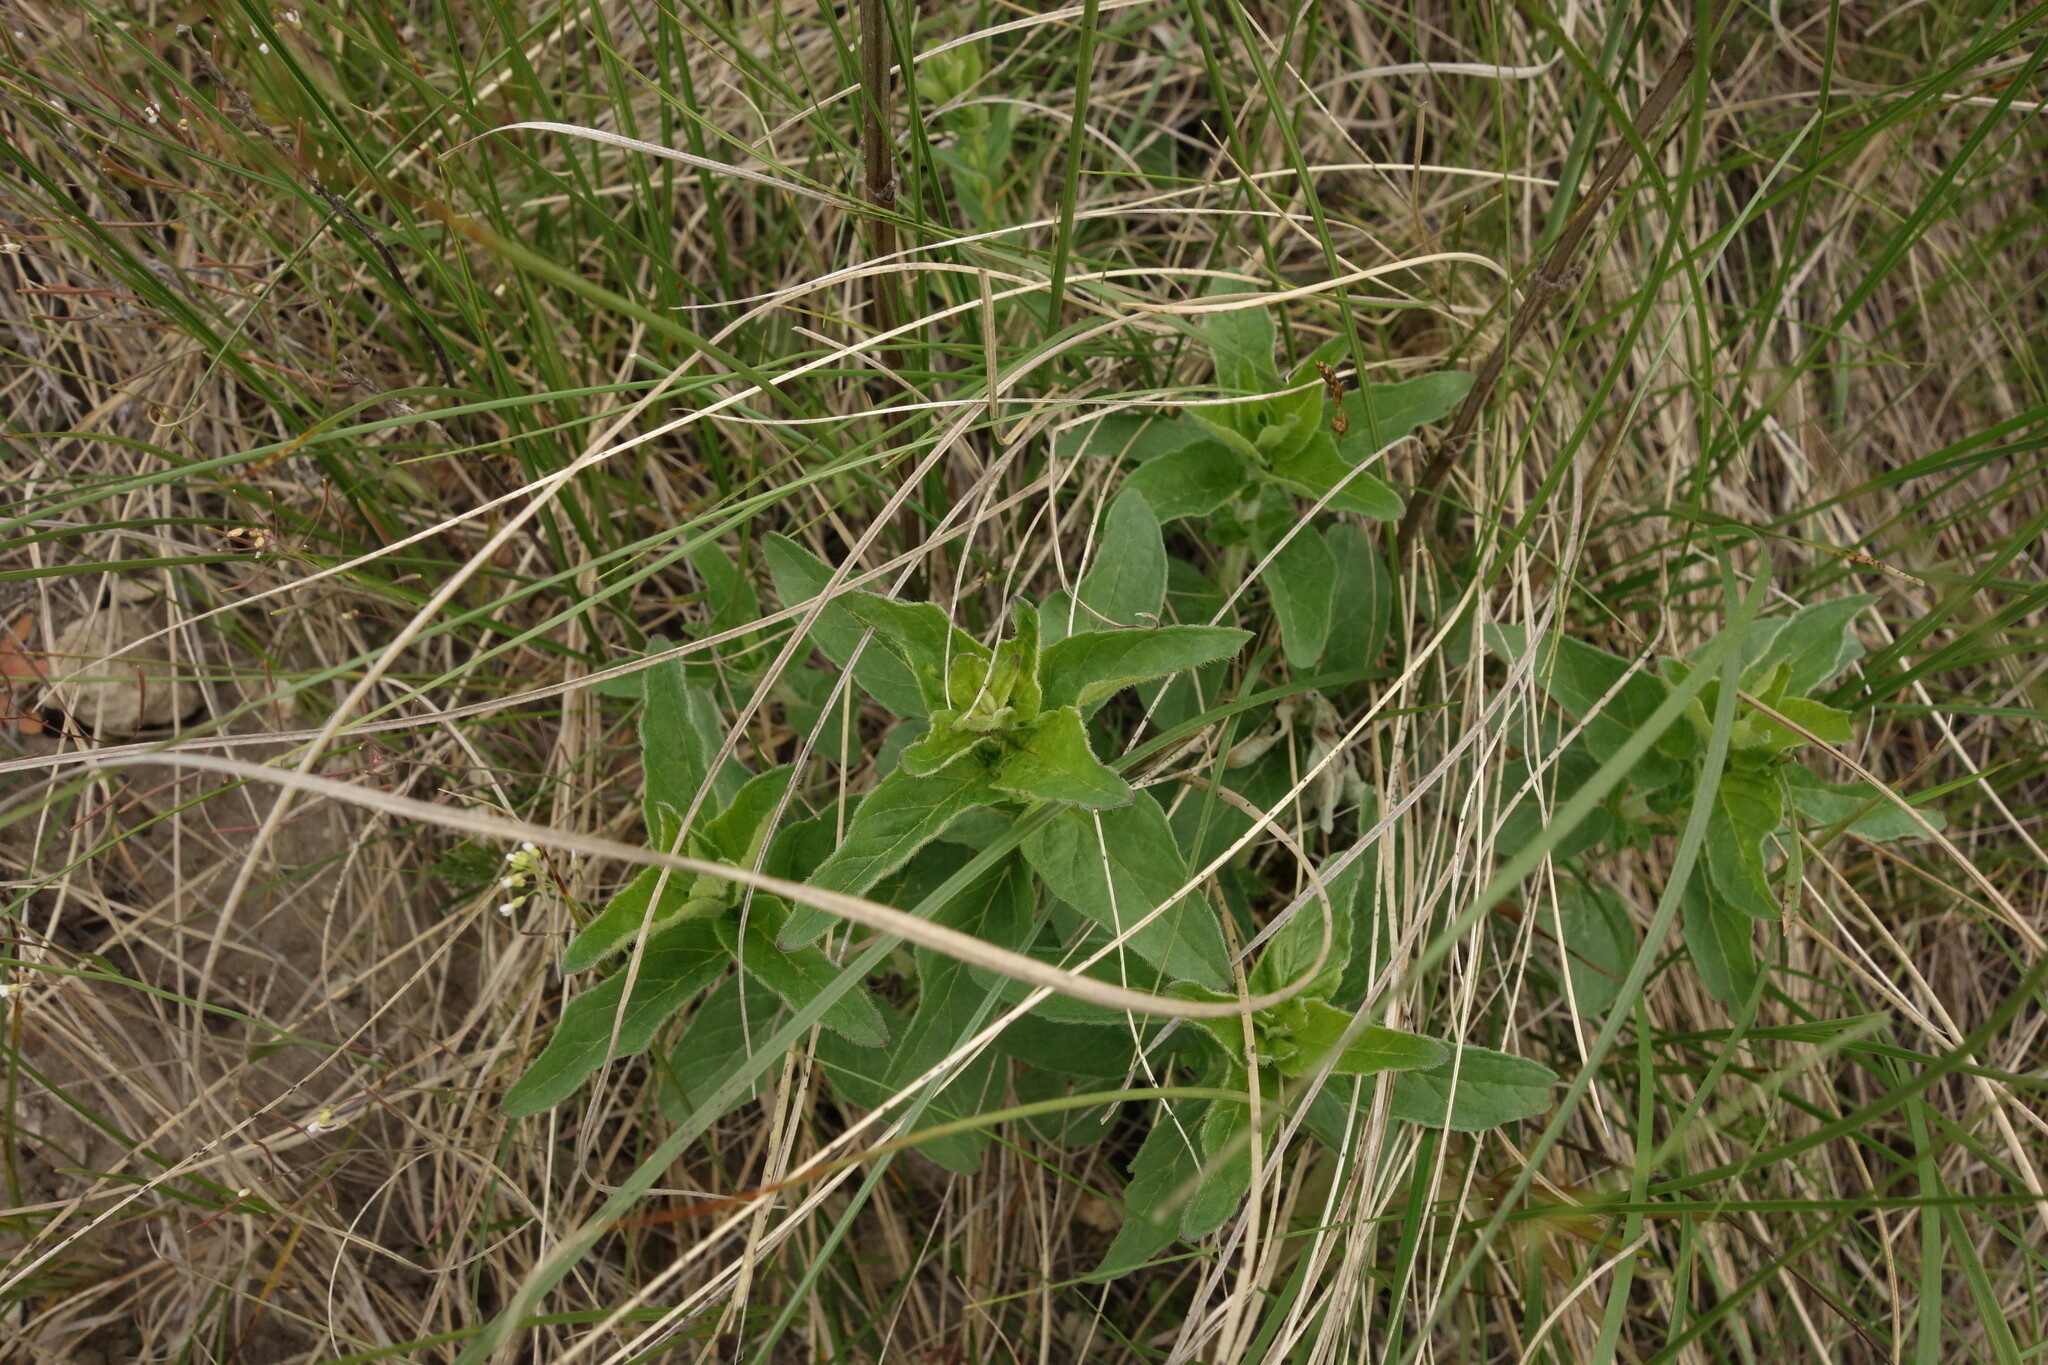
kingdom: Plantae
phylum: Tracheophyta
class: Magnoliopsida
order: Lamiales
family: Lamiaceae
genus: Origanum
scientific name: Origanum vulgare
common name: Wild marjoram
